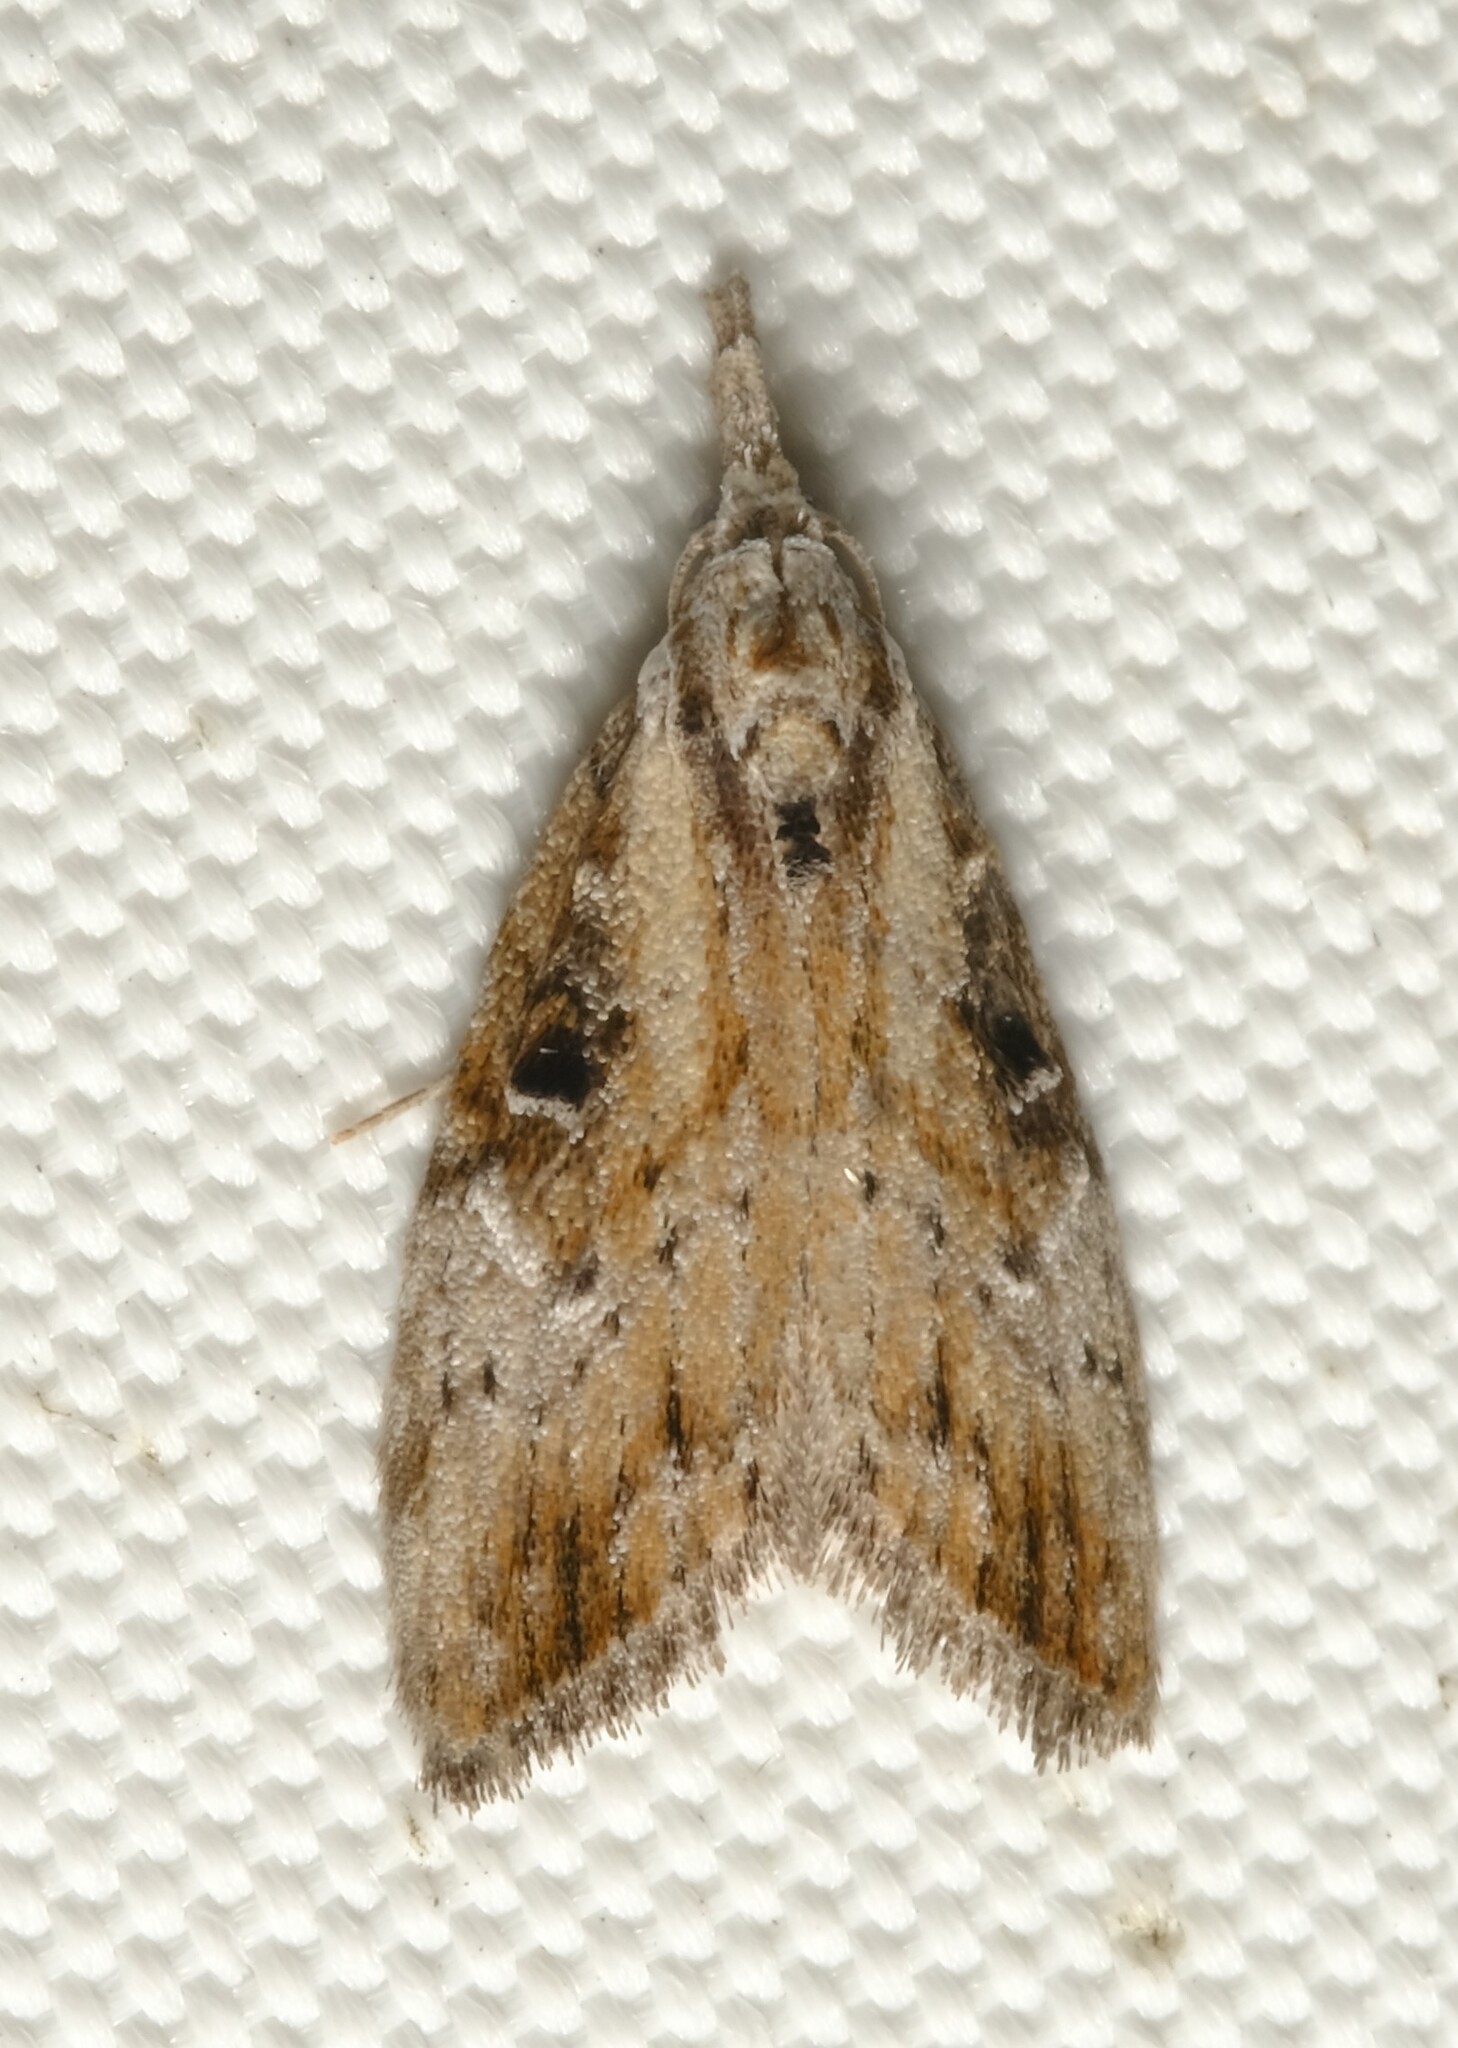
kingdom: Animalia
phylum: Arthropoda
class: Insecta
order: Lepidoptera
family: Nolidae
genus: Nola
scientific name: Nola biguttalis
